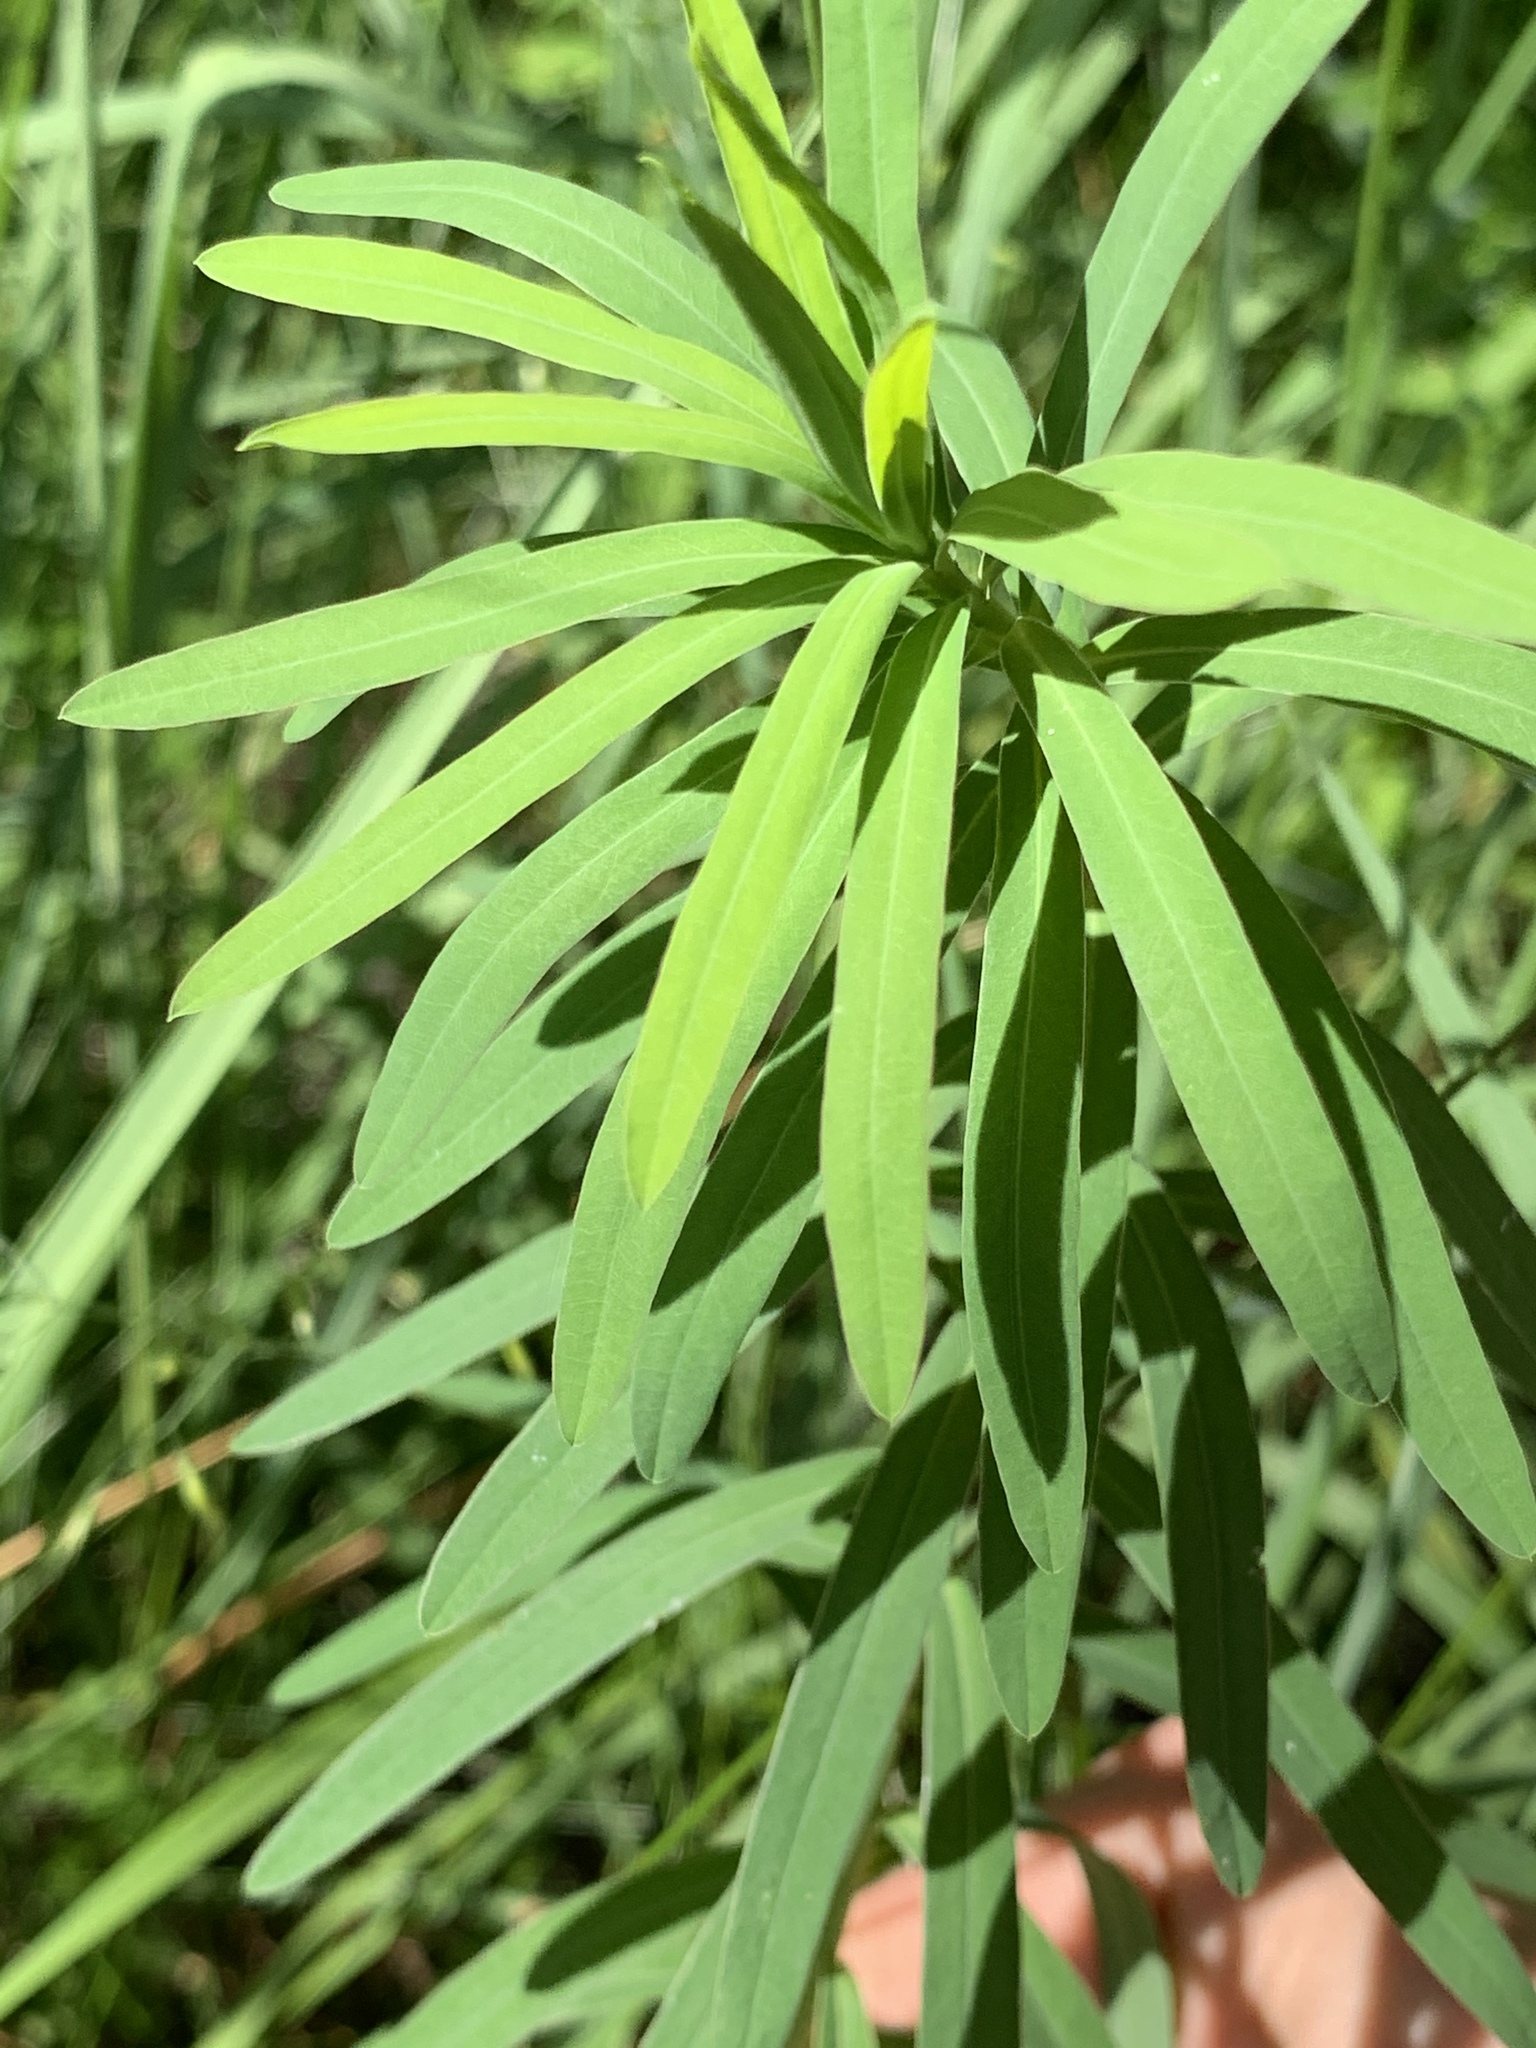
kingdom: Plantae
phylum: Tracheophyta
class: Magnoliopsida
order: Malpighiales
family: Euphorbiaceae
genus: Euphorbia
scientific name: Euphorbia virgata
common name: Leafy spurge
